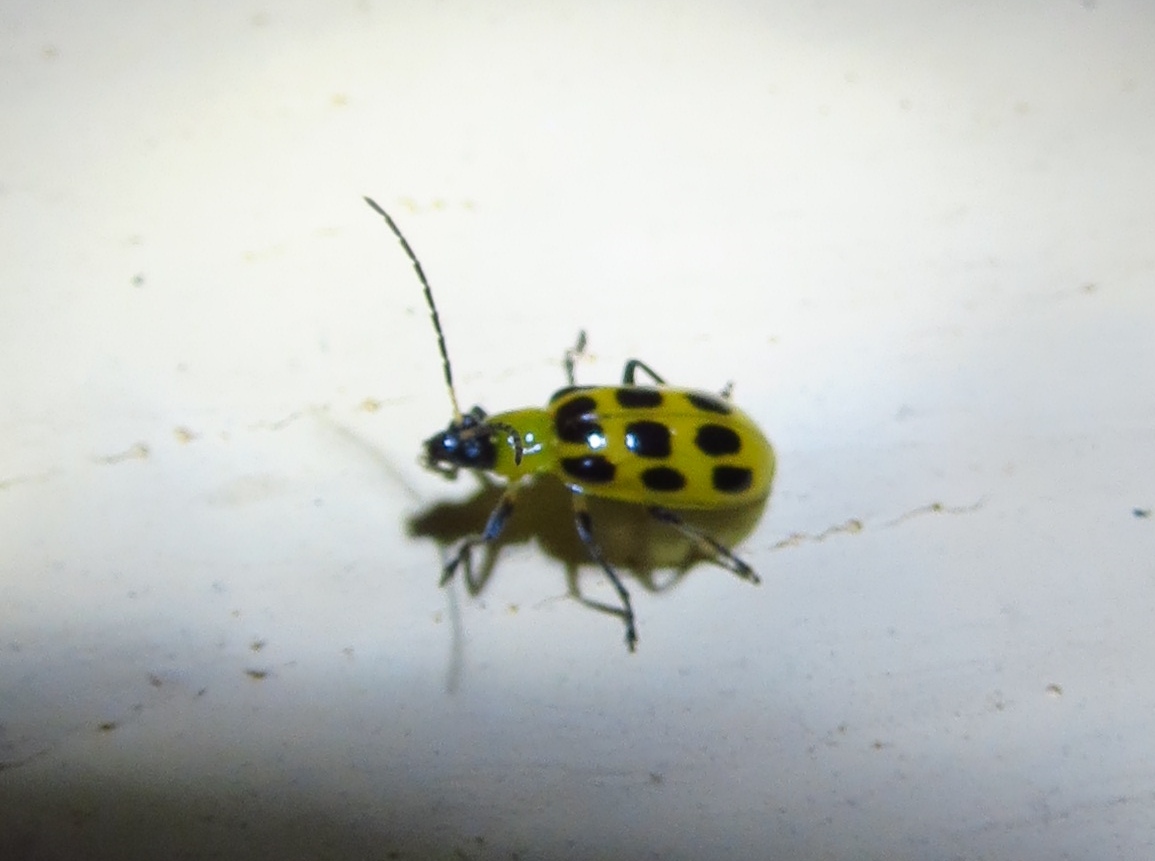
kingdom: Animalia
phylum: Arthropoda
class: Insecta
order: Coleoptera
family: Chrysomelidae
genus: Diabrotica
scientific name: Diabrotica undecimpunctata
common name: Spotted cucumber beetle
